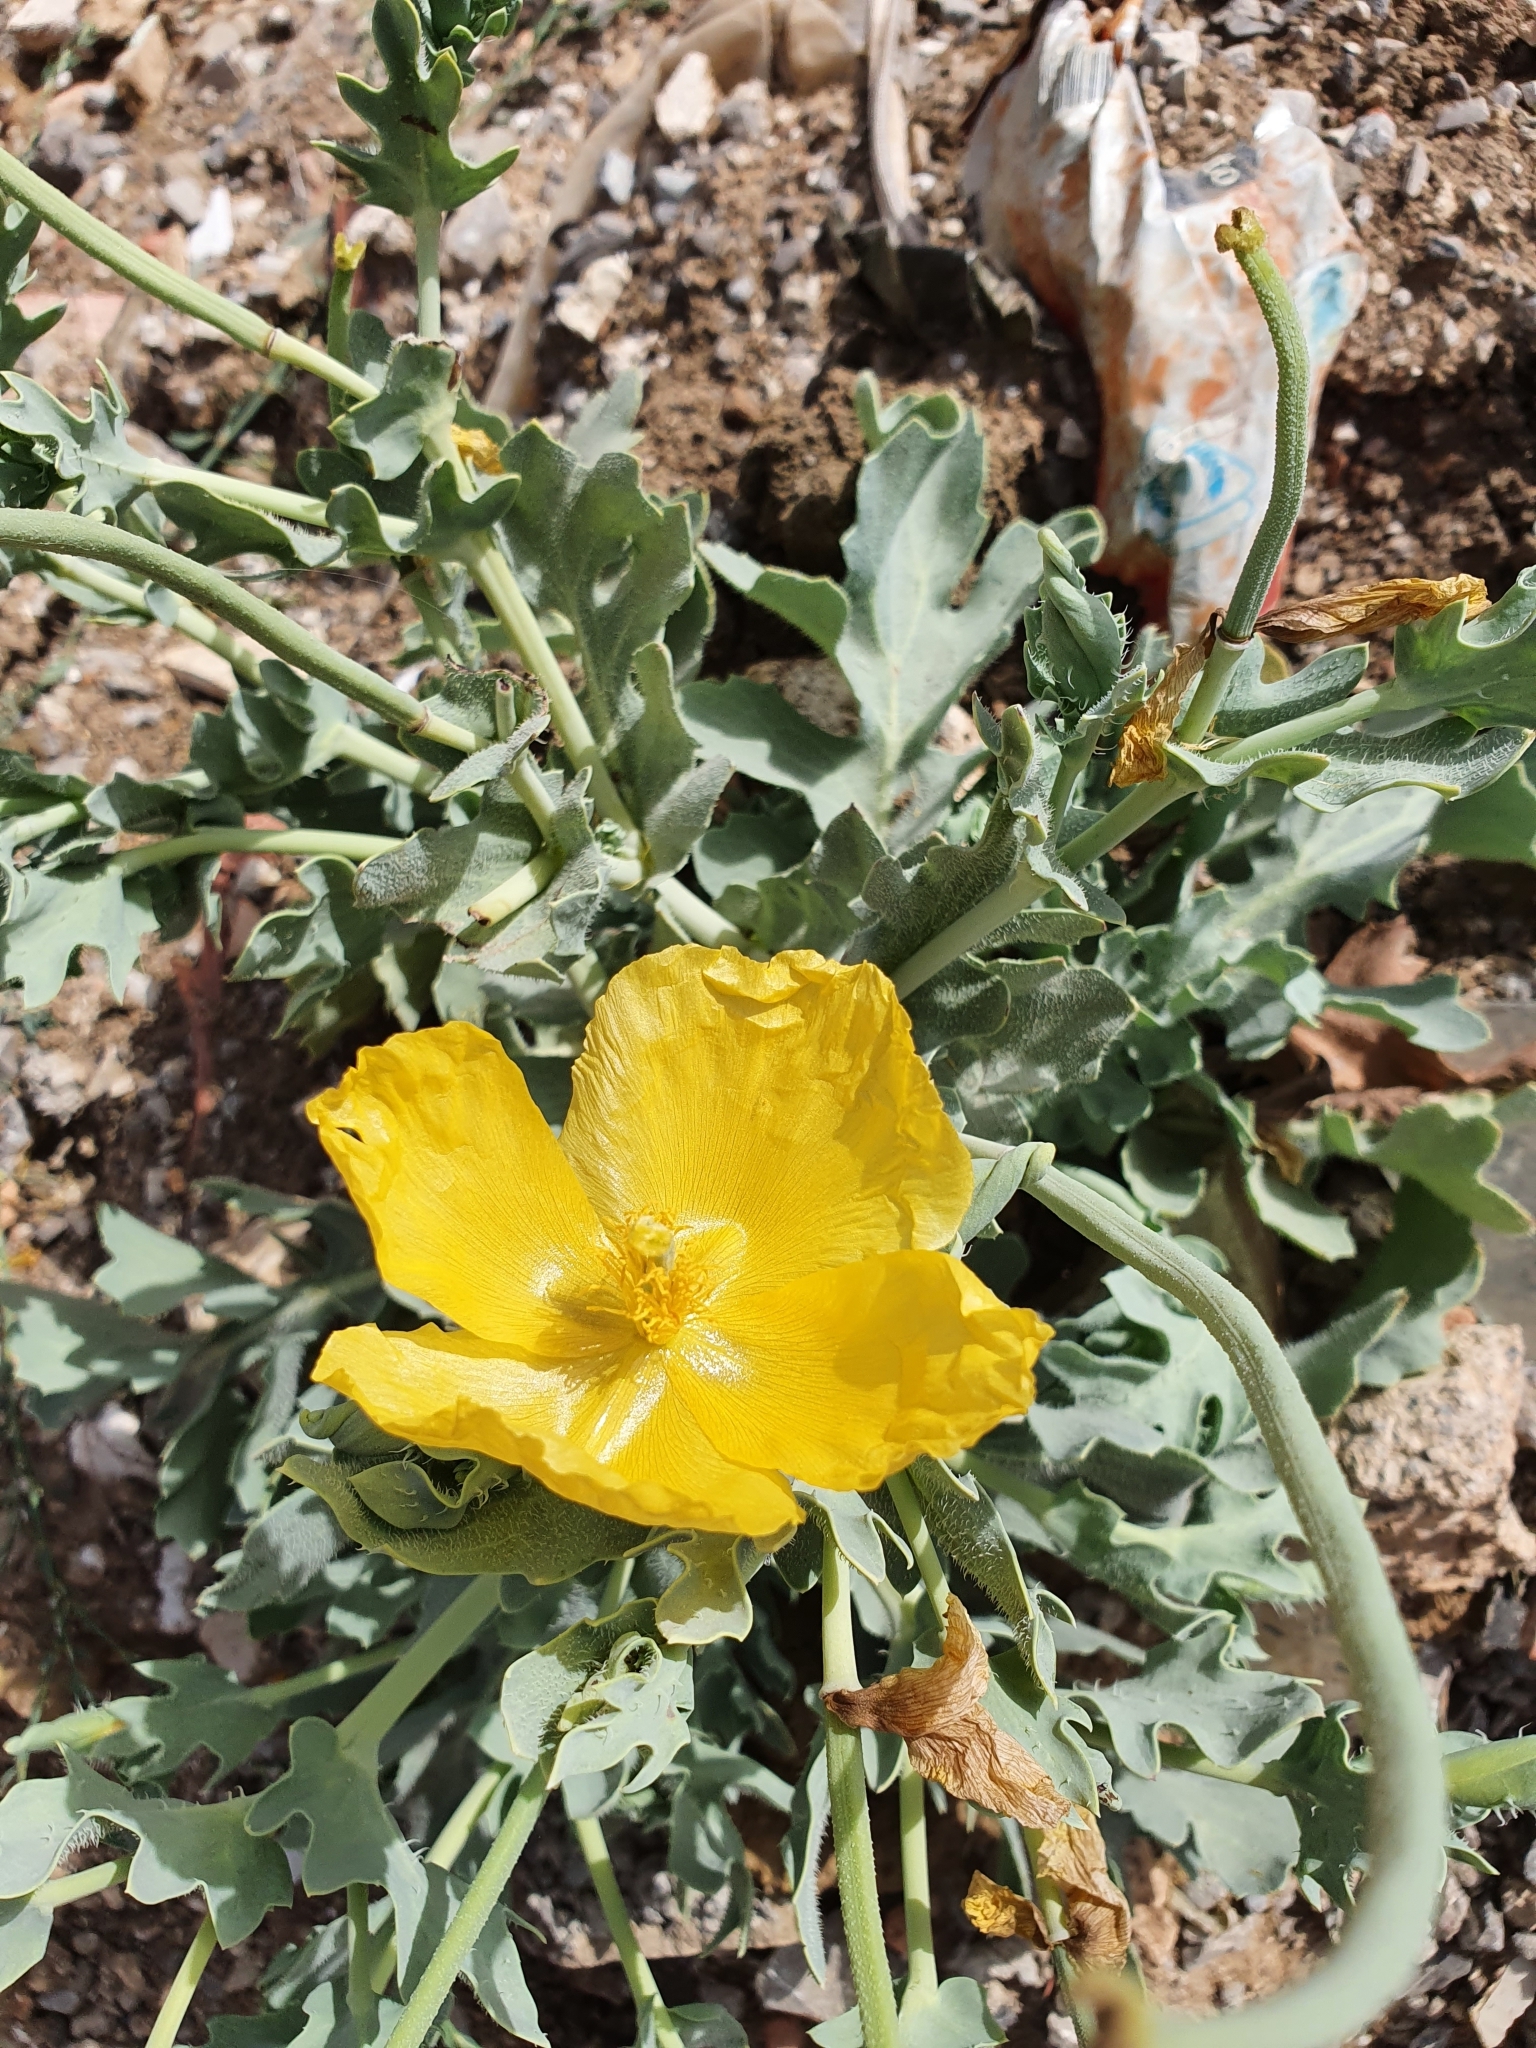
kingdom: Plantae
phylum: Tracheophyta
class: Magnoliopsida
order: Ranunculales
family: Papaveraceae
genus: Glaucium
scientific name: Glaucium flavum
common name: Yellow horned-poppy
